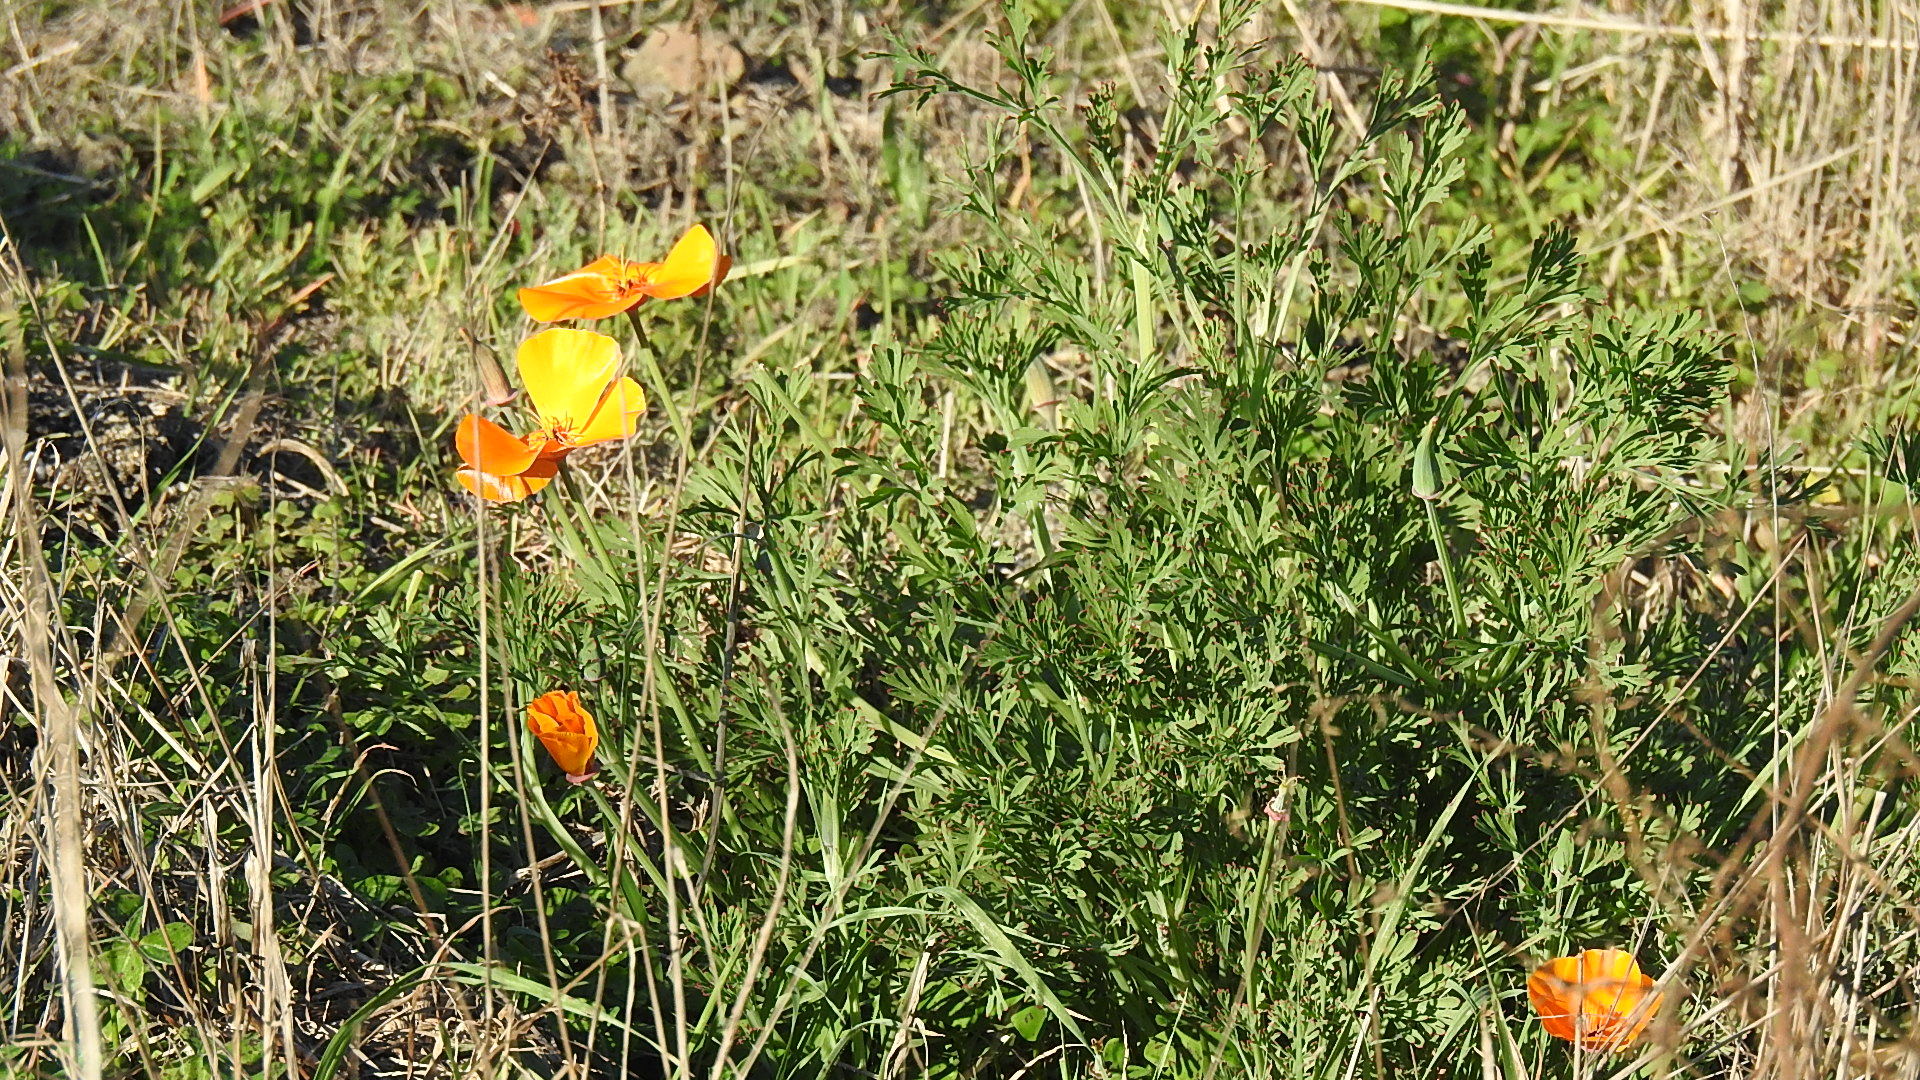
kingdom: Plantae
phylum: Tracheophyta
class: Magnoliopsida
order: Ranunculales
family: Papaveraceae
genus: Eschscholzia
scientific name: Eschscholzia californica
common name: California poppy
